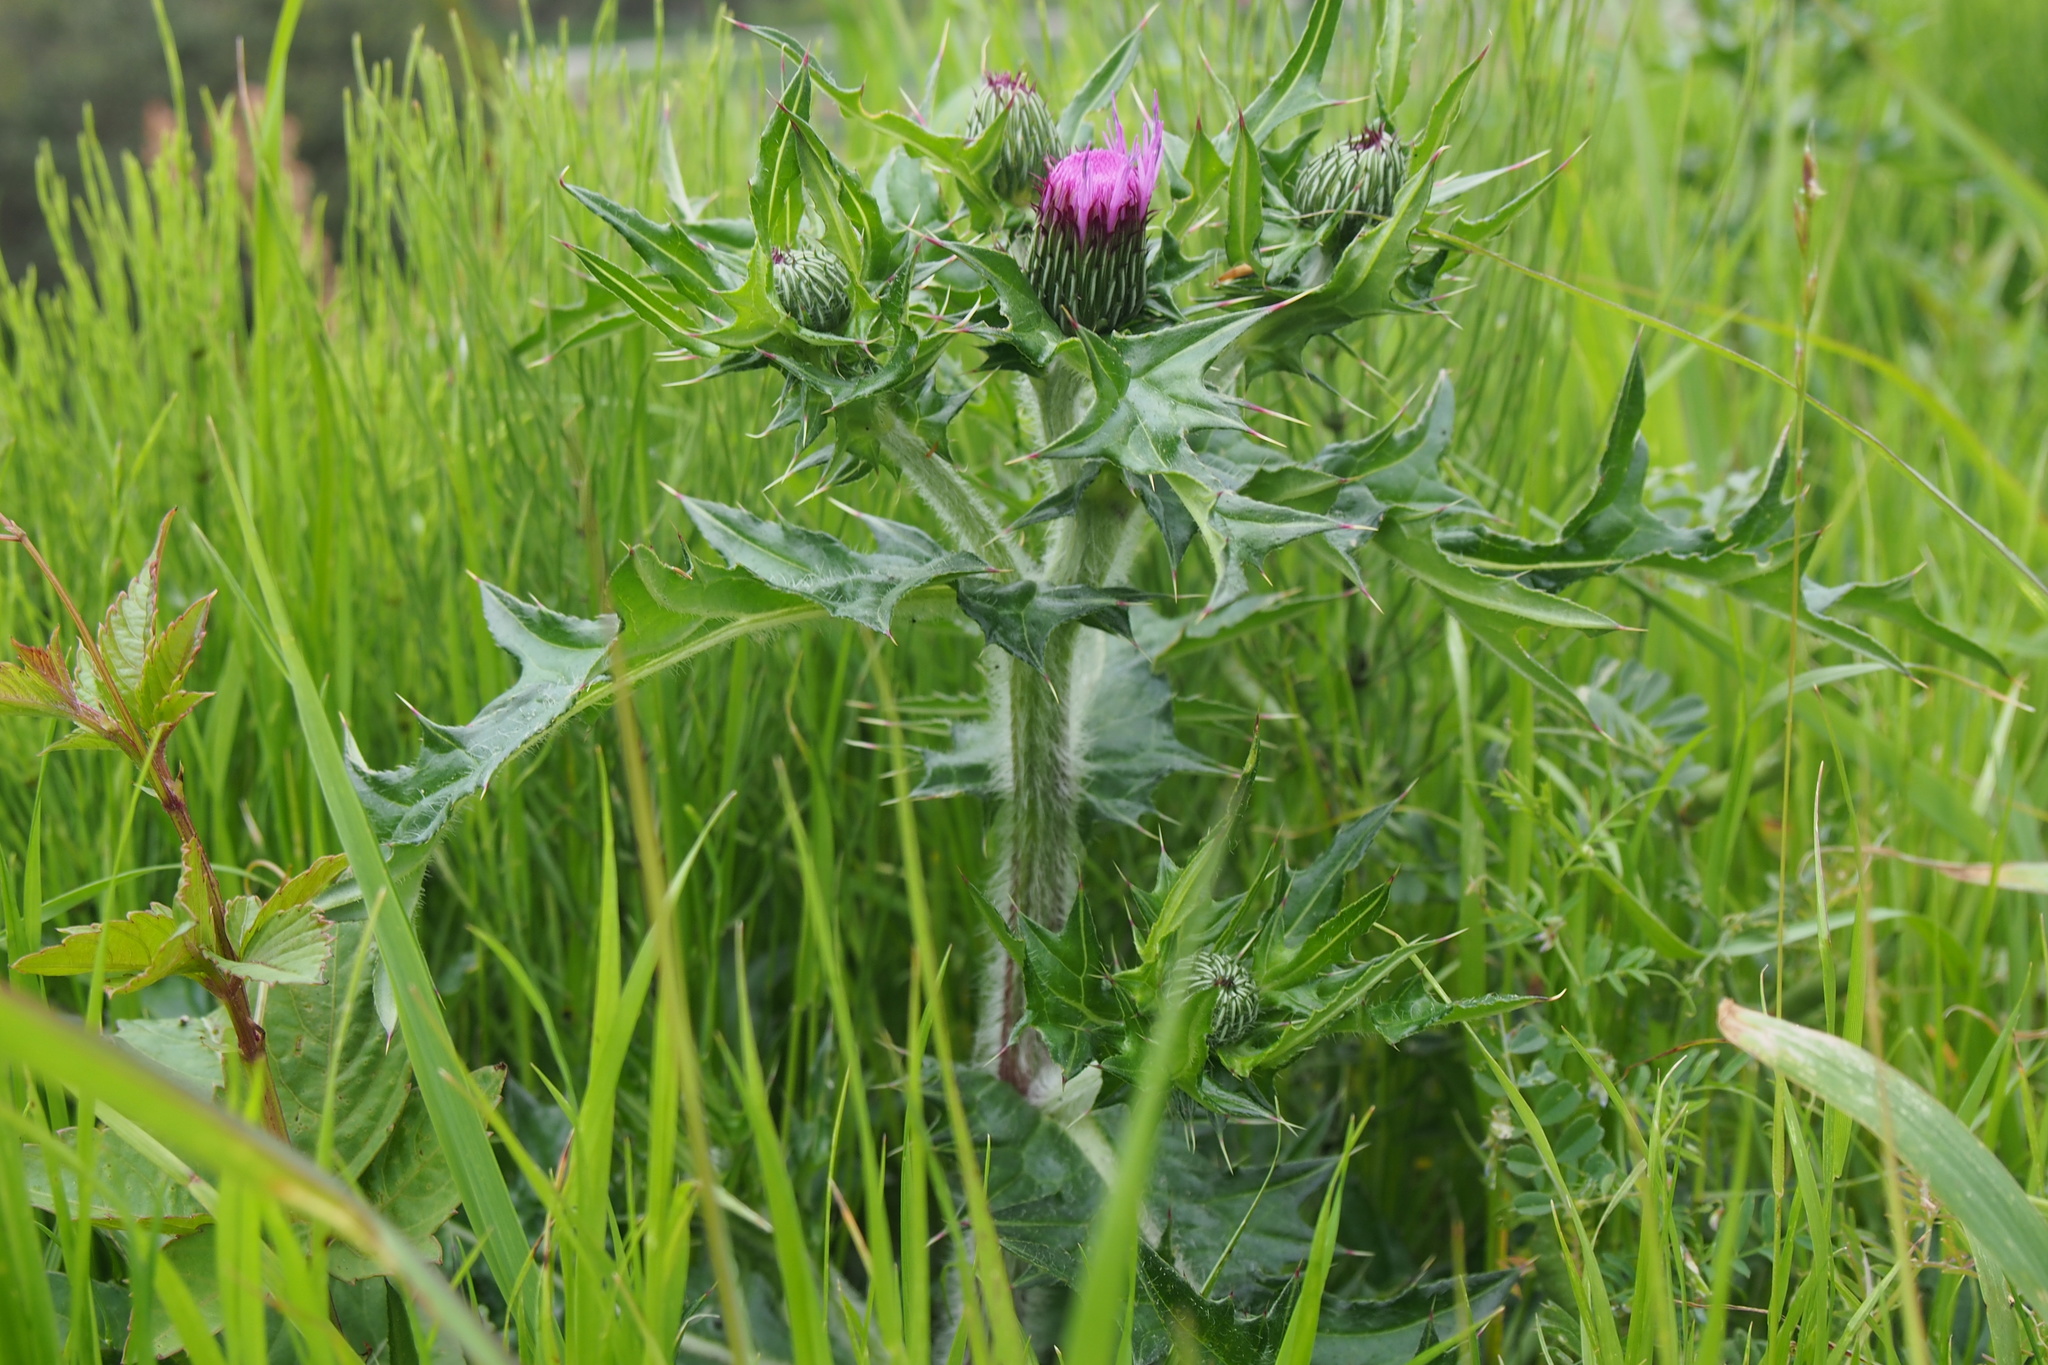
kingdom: Plantae
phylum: Tracheophyta
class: Magnoliopsida
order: Asterales
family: Asteraceae
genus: Cirsium
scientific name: Cirsium japonicum
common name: Japanese thistle
